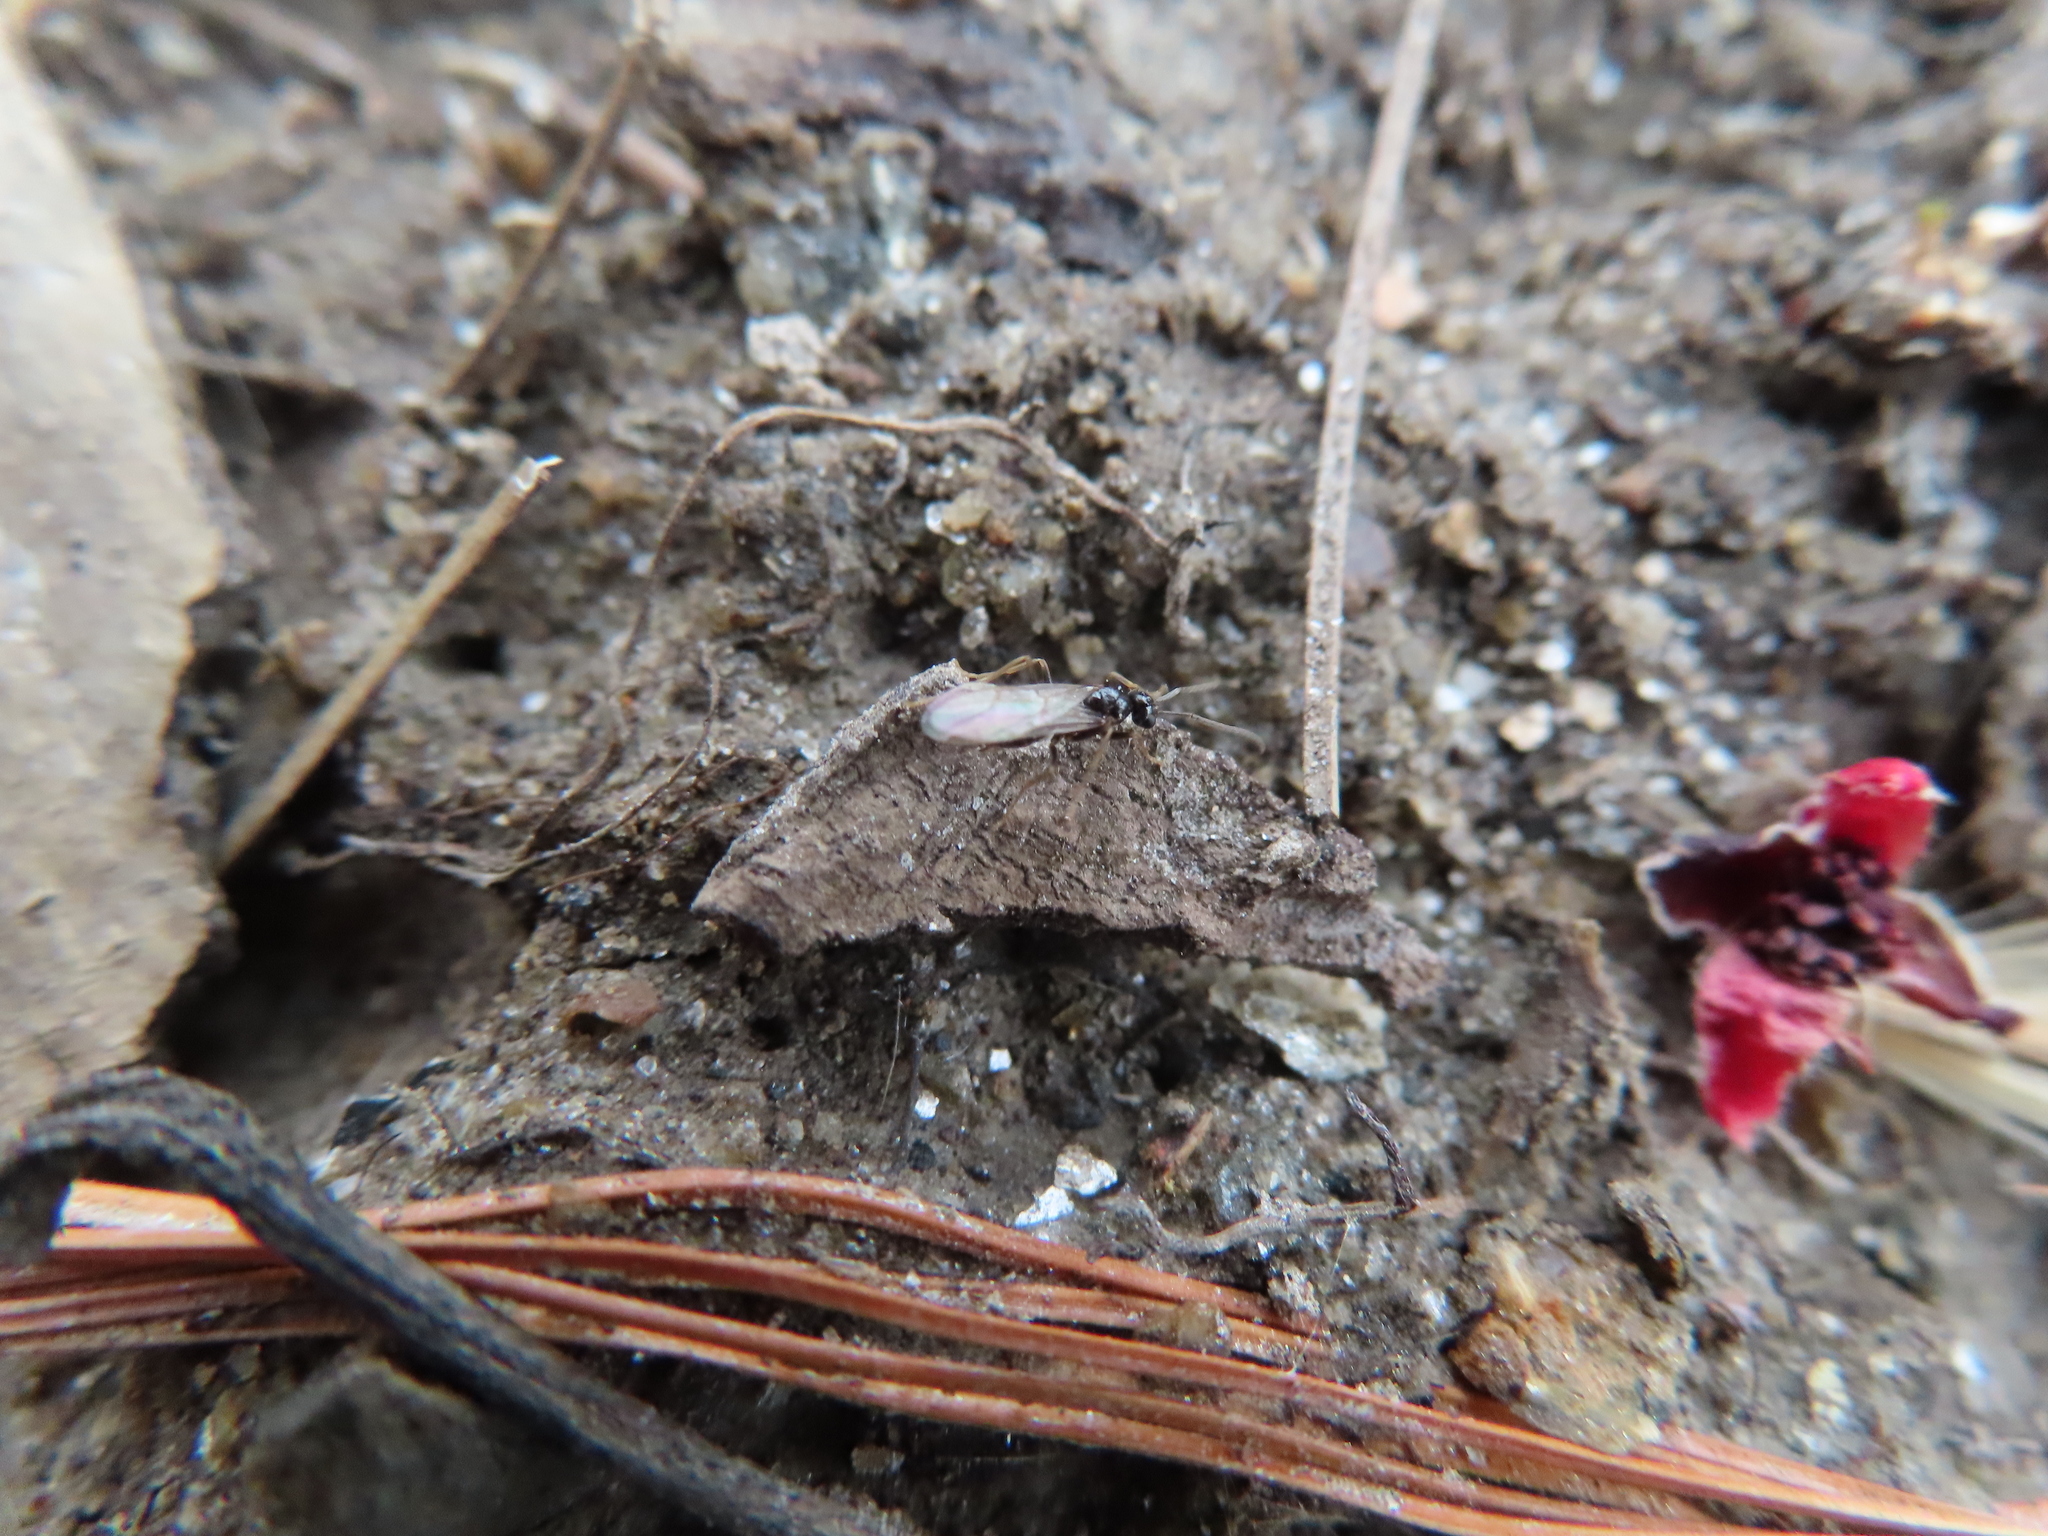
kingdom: Animalia
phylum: Arthropoda
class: Insecta
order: Hymenoptera
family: Formicidae
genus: Prenolepis
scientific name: Prenolepis imparis
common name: Small honey ant
